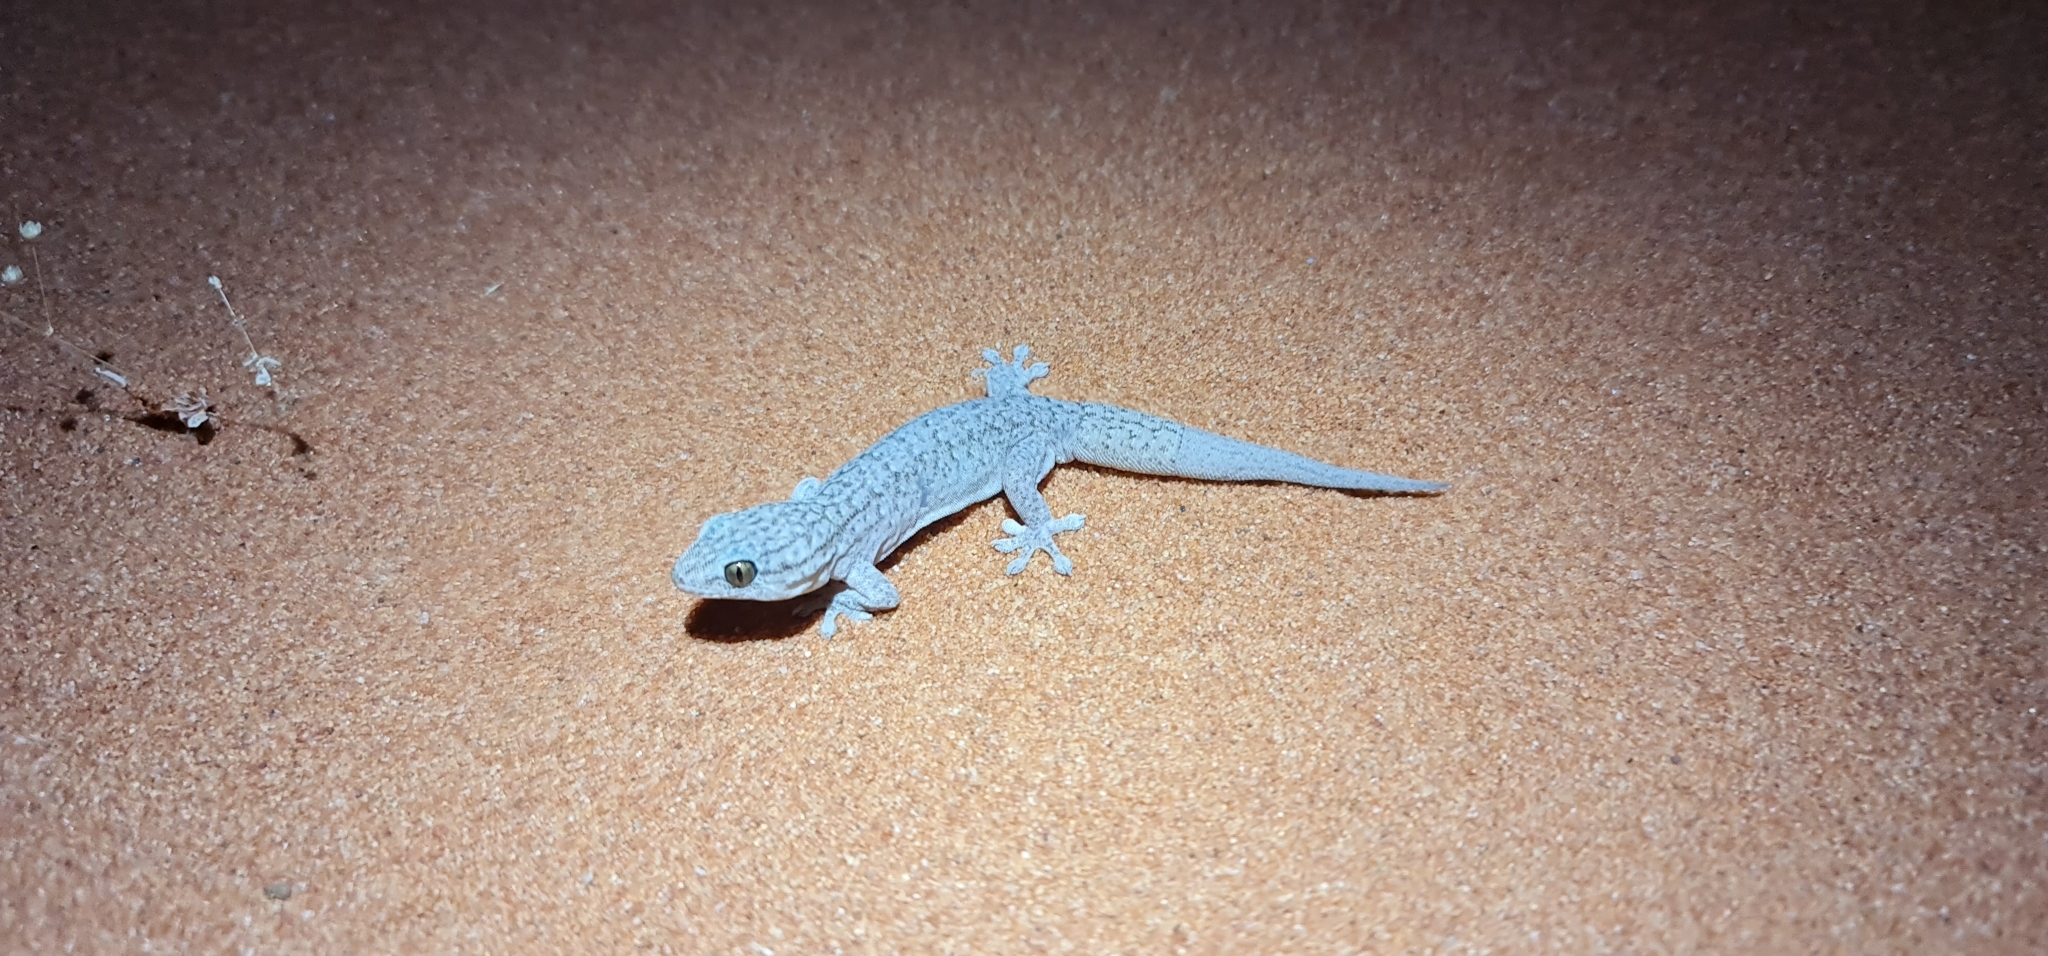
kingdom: Animalia
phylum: Chordata
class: Squamata
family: Gekkonidae
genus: Gehyra
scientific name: Gehyra versicolor
